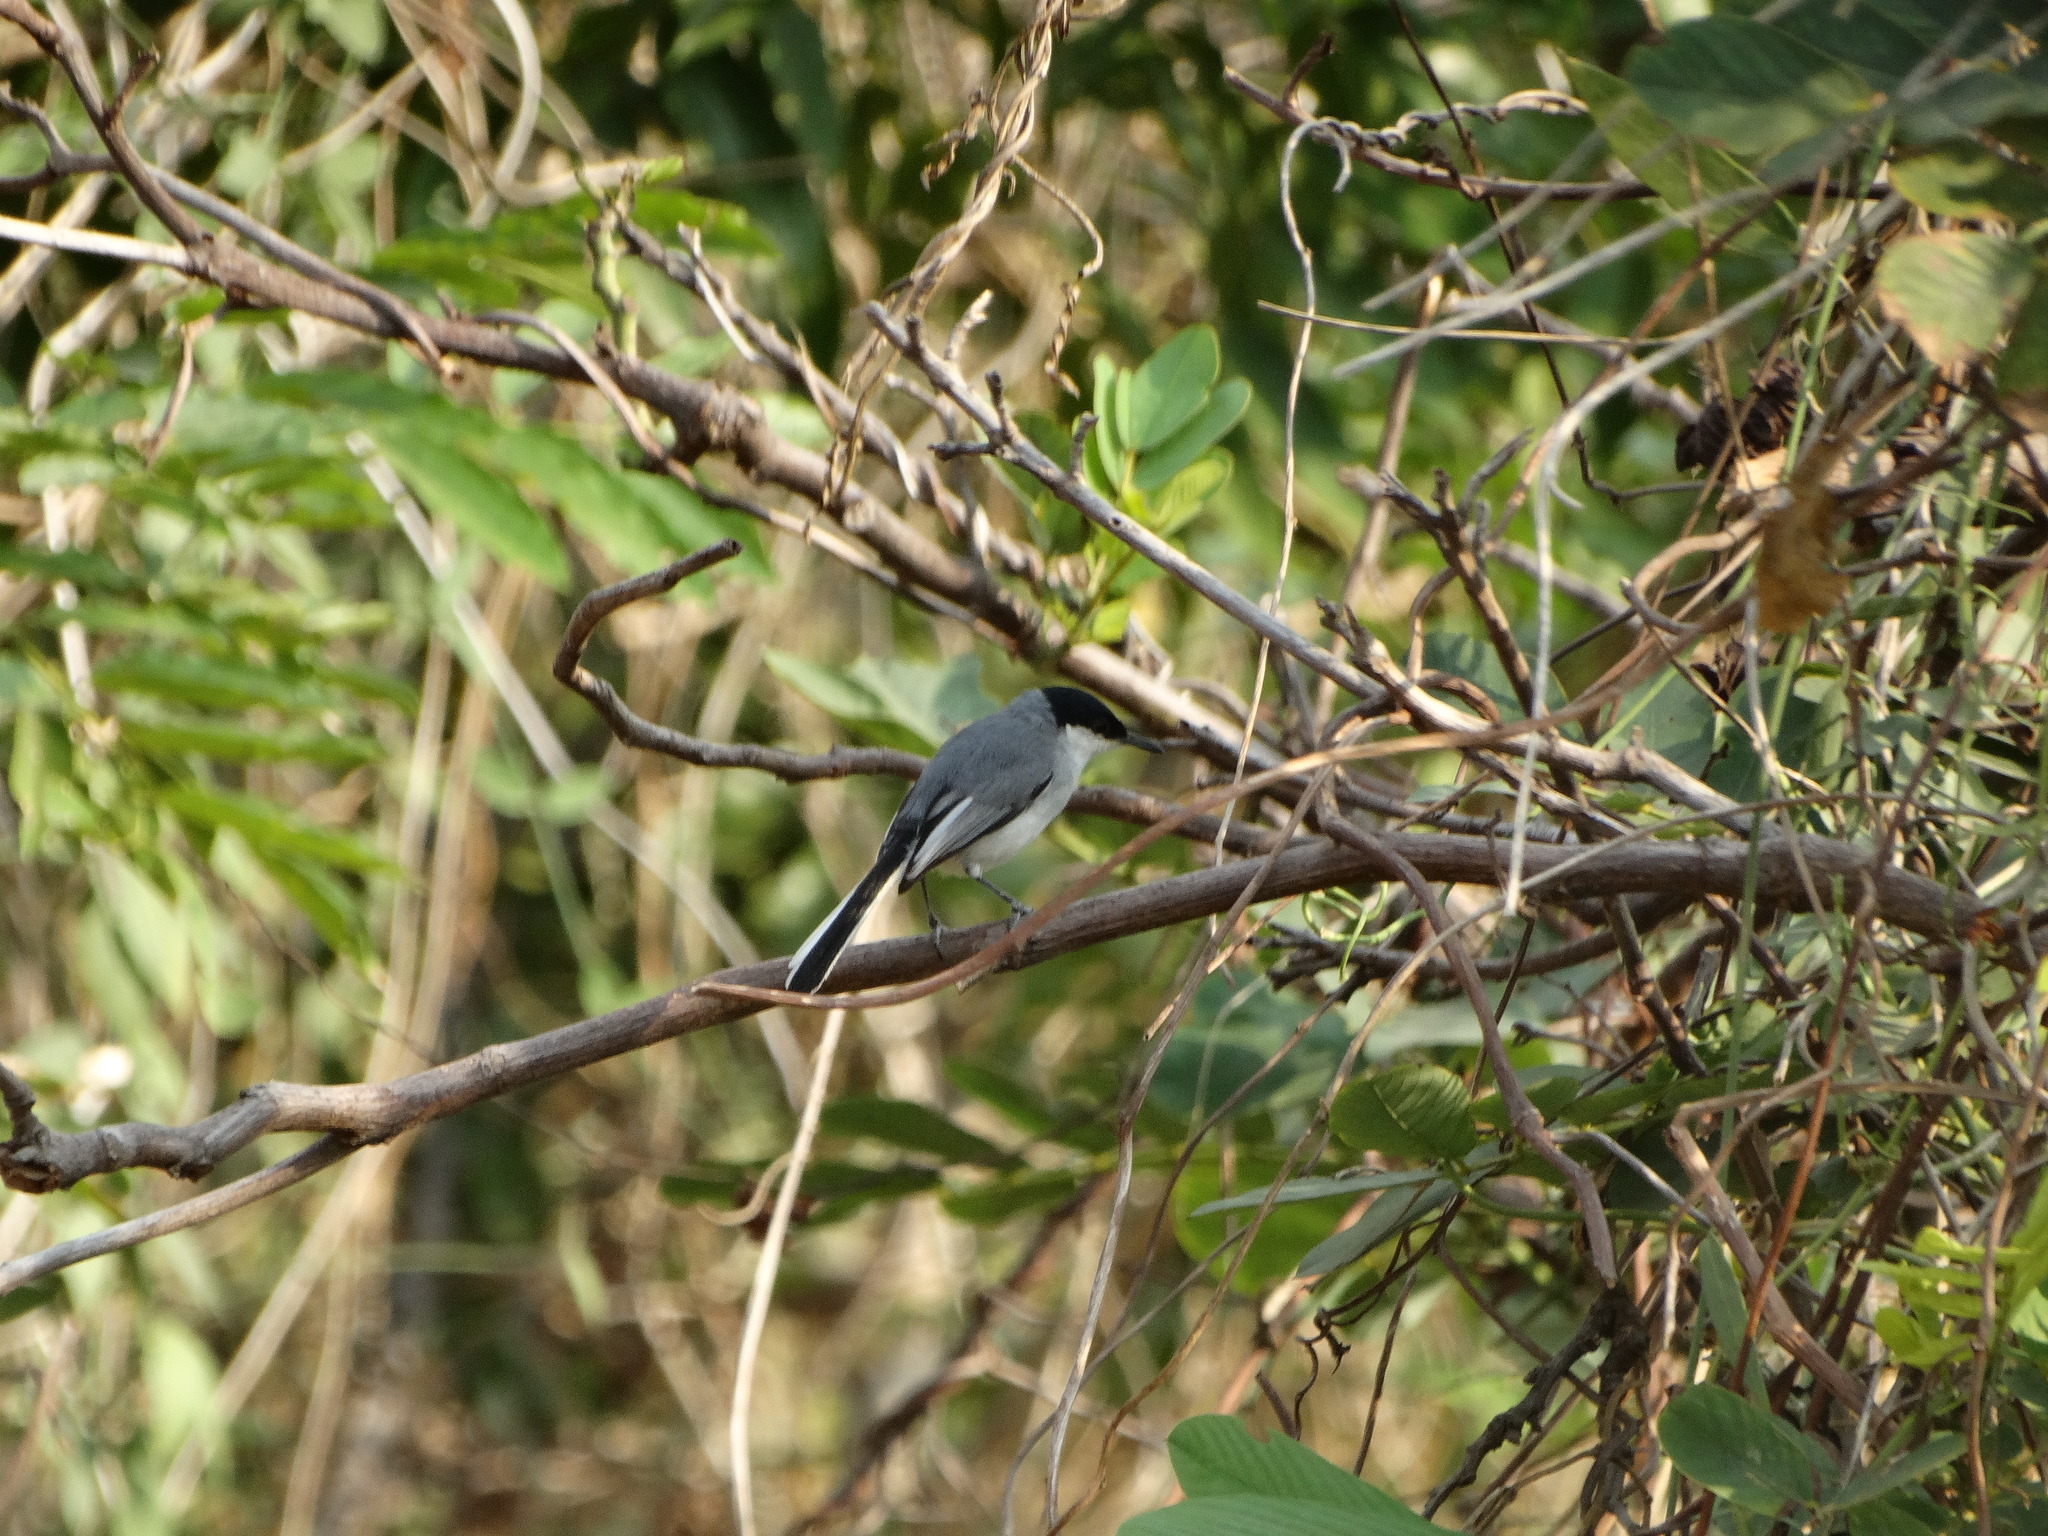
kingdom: Animalia
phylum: Chordata
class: Aves
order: Passeriformes
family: Polioptilidae
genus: Polioptila
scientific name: Polioptila albiloris
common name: White-lored gnatcatcher
